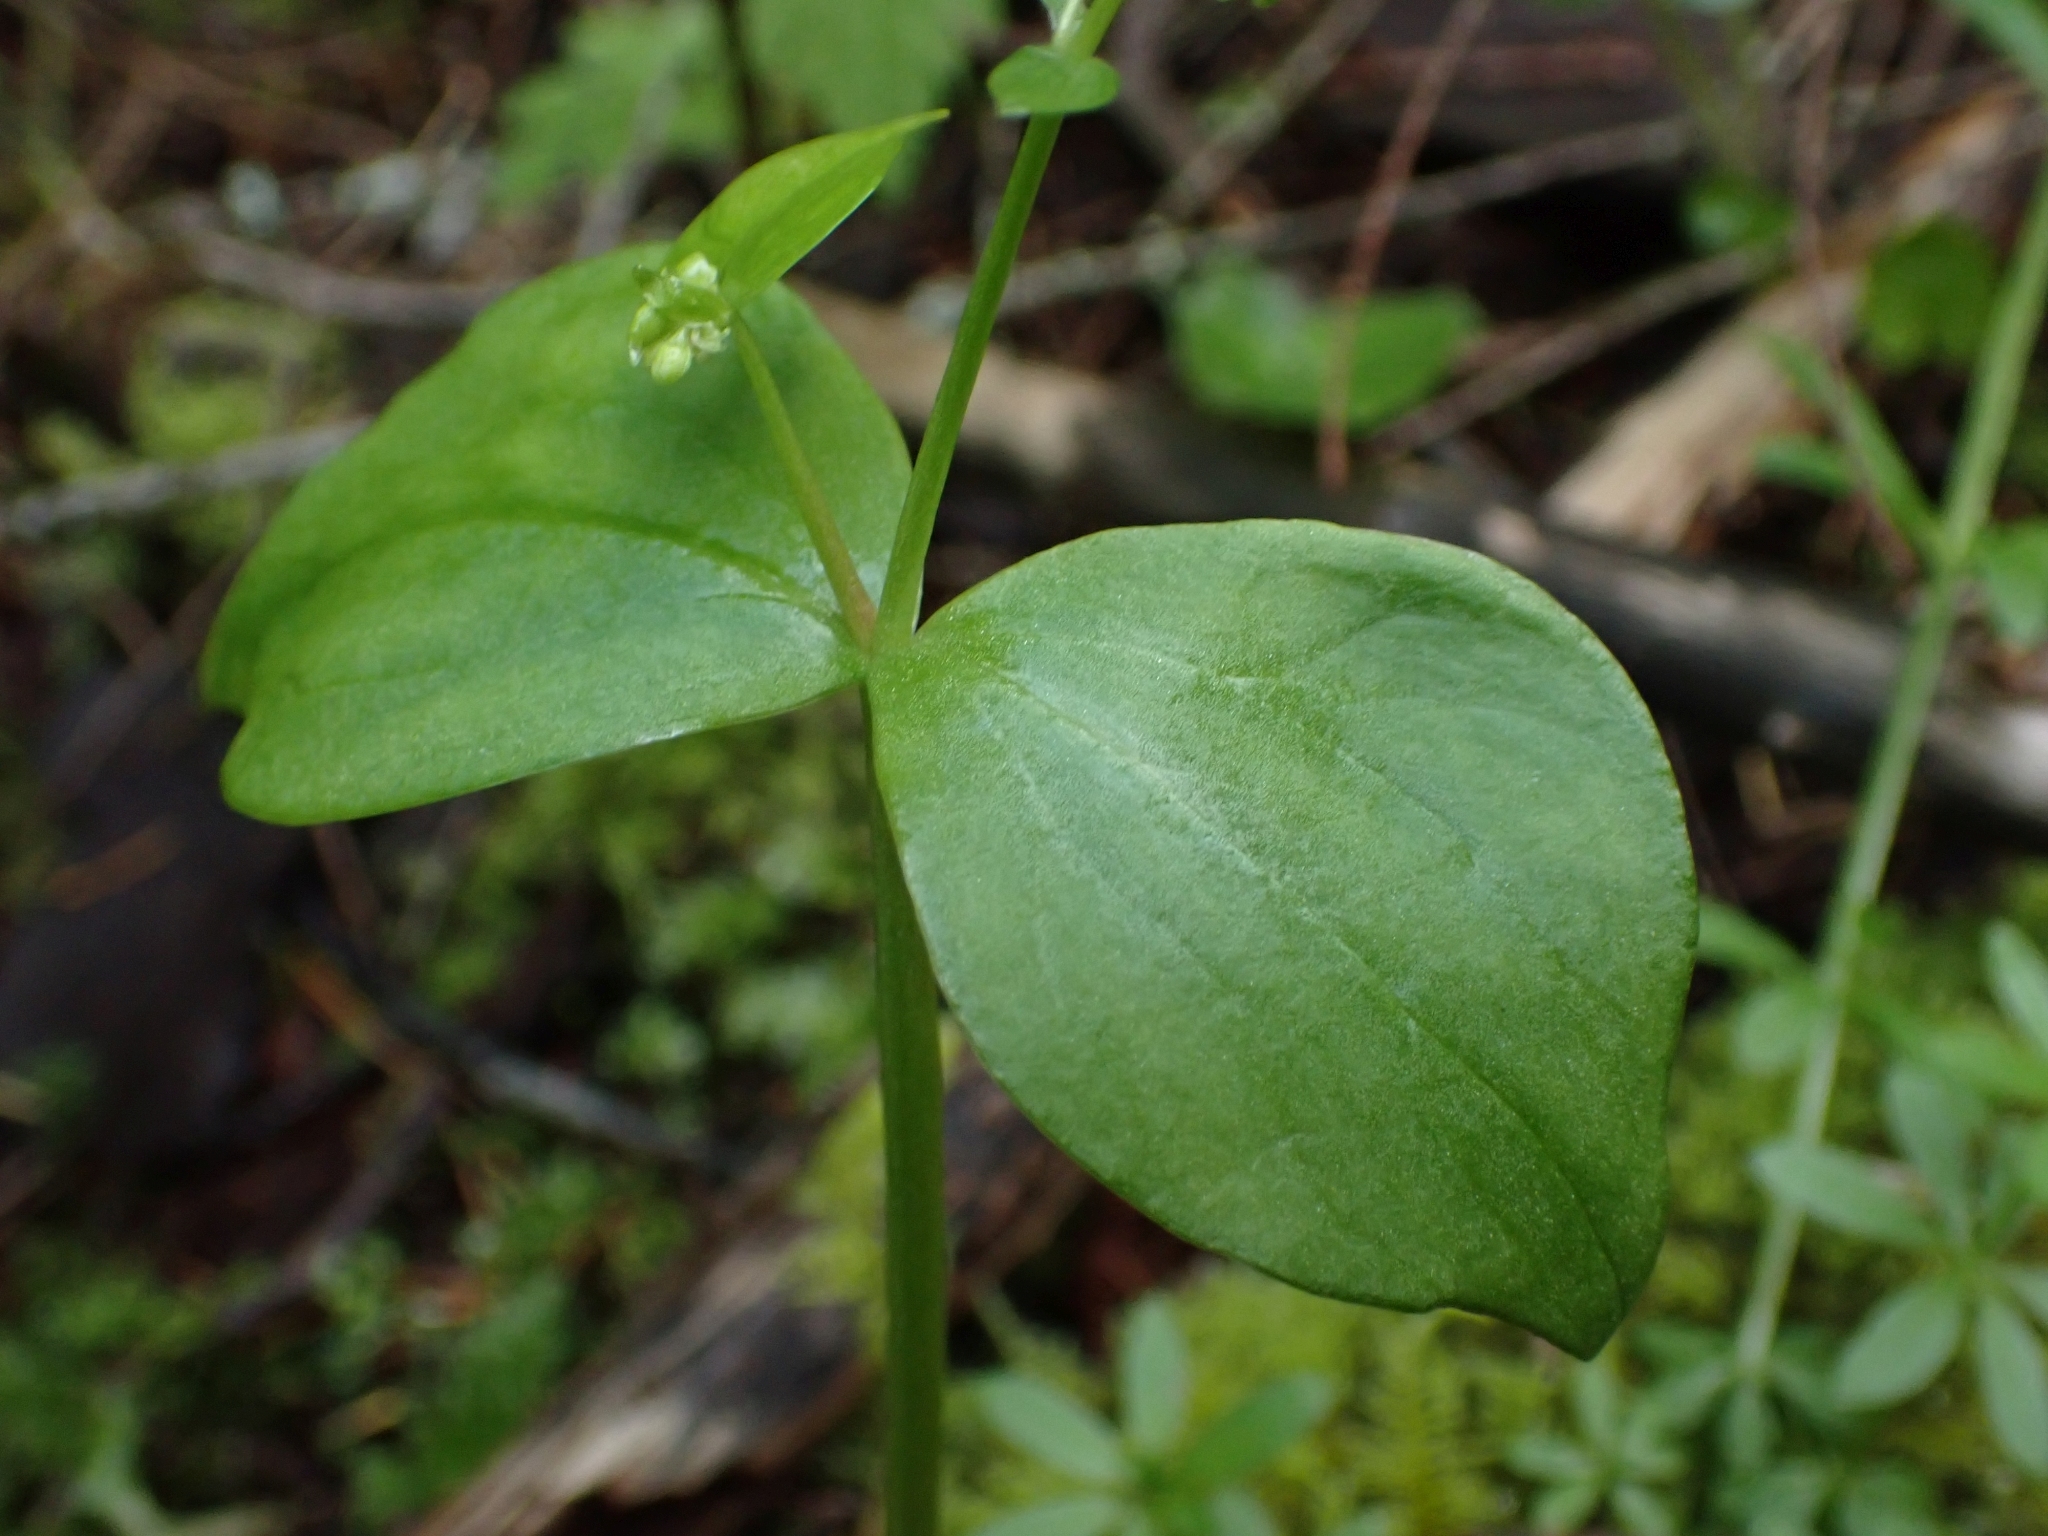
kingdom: Plantae
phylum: Tracheophyta
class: Magnoliopsida
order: Caryophyllales
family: Montiaceae
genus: Claytonia
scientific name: Claytonia sibirica
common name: Pink purslane
